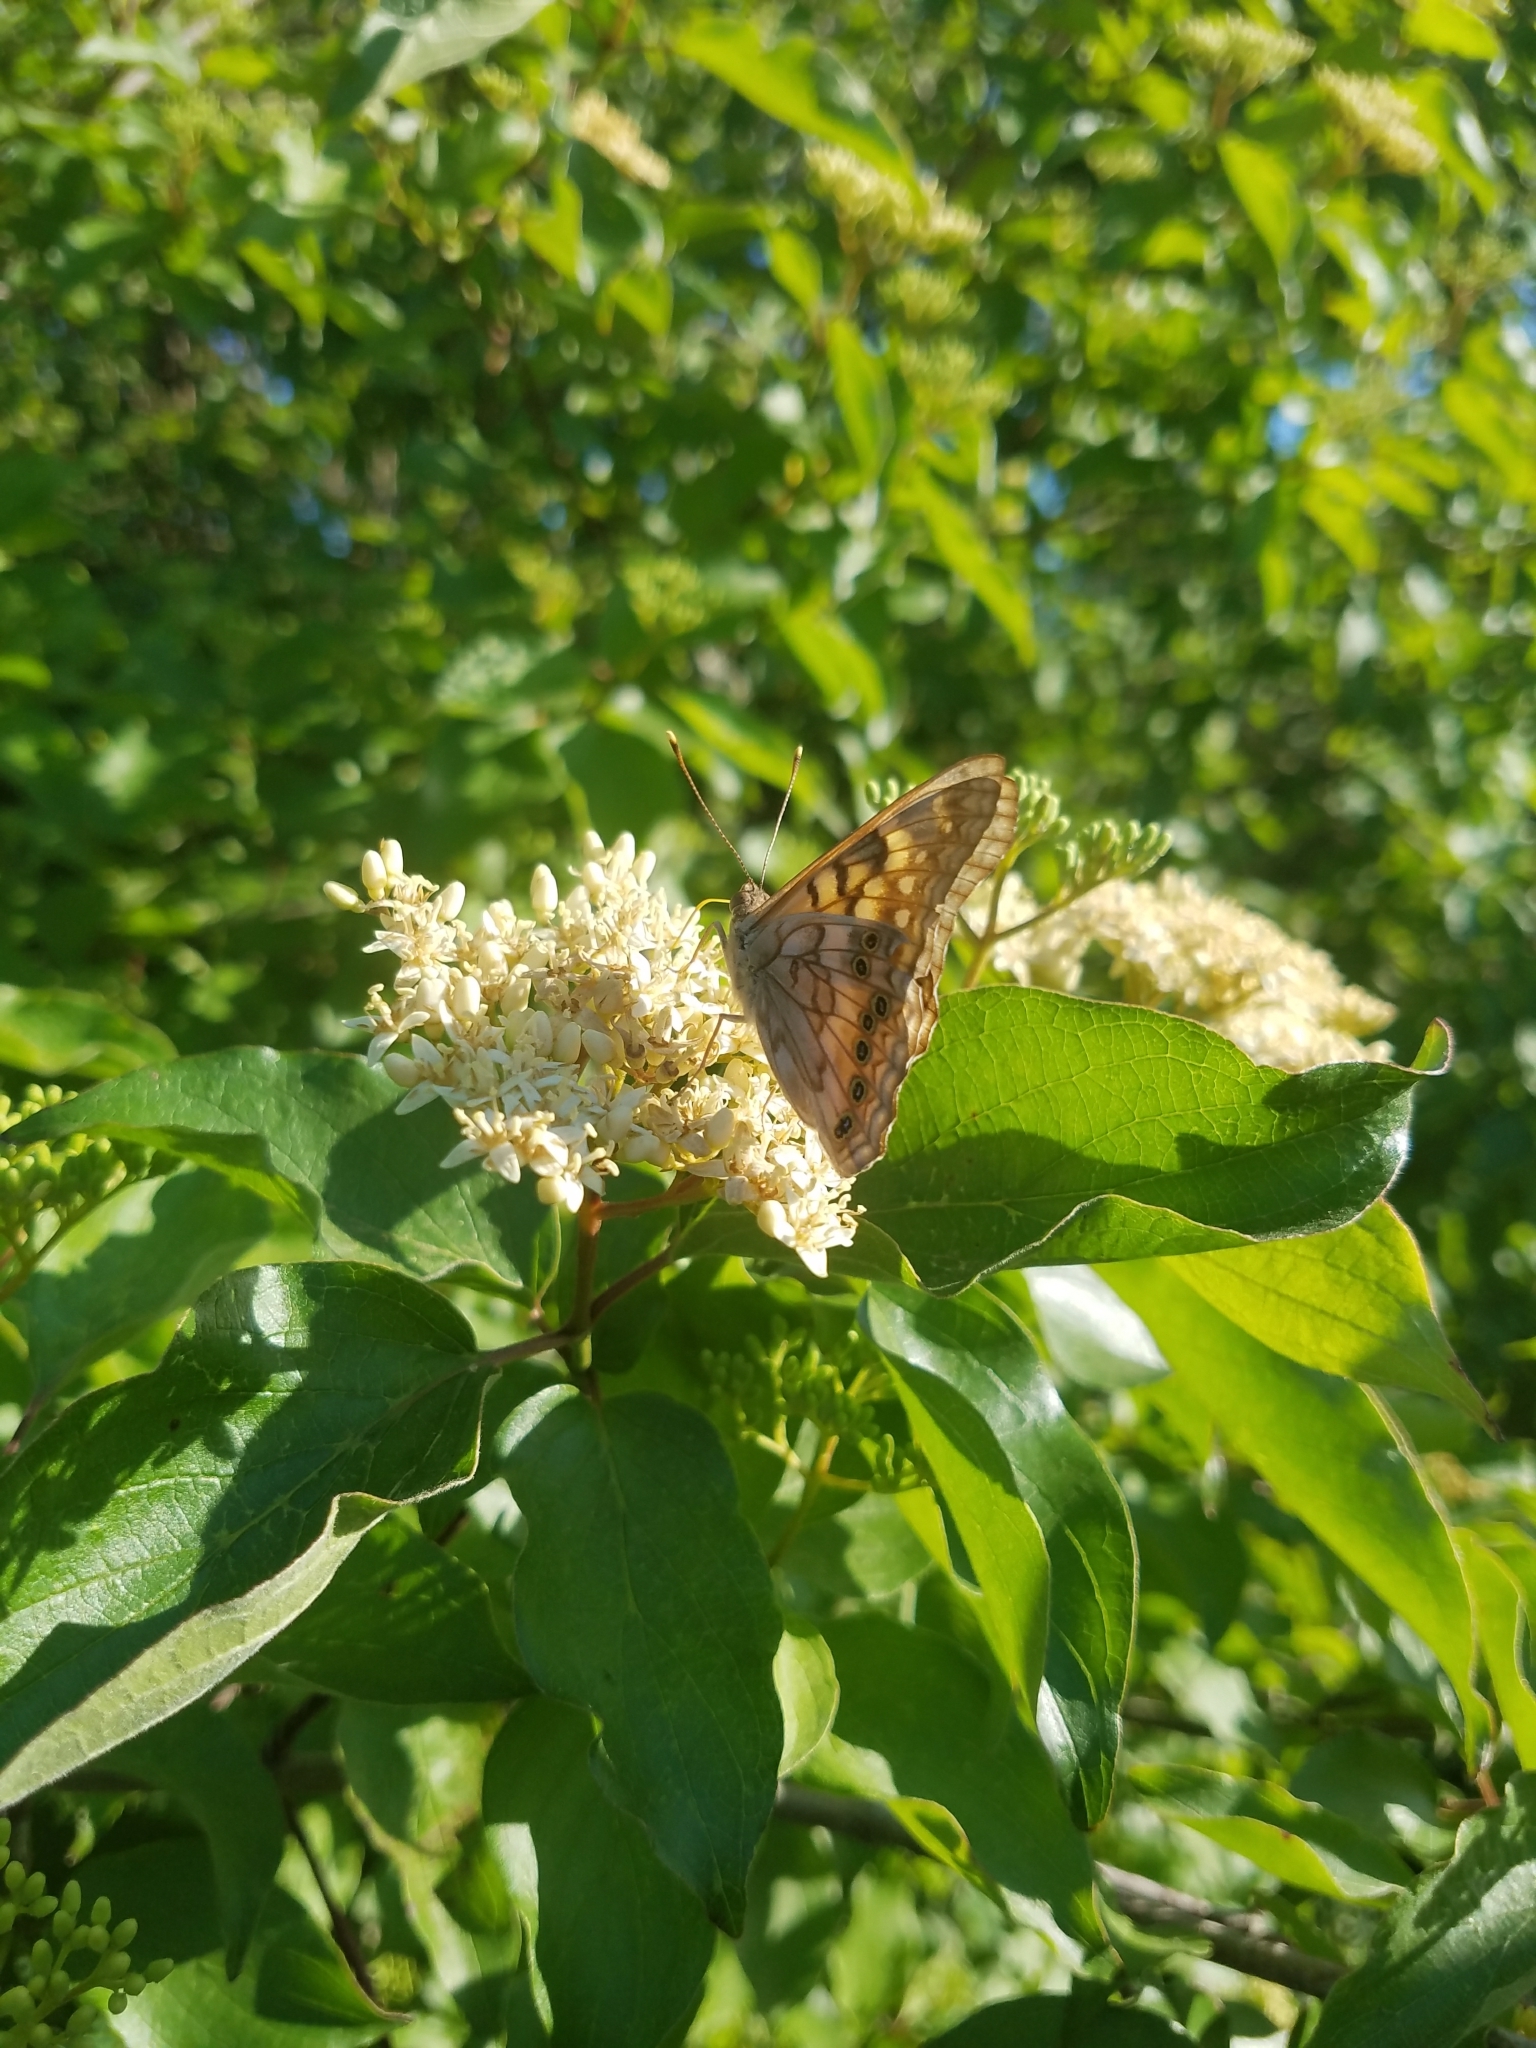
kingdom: Animalia
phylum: Arthropoda
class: Insecta
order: Lepidoptera
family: Nymphalidae
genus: Asterocampa
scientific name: Asterocampa clyton
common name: Tawny emperor
